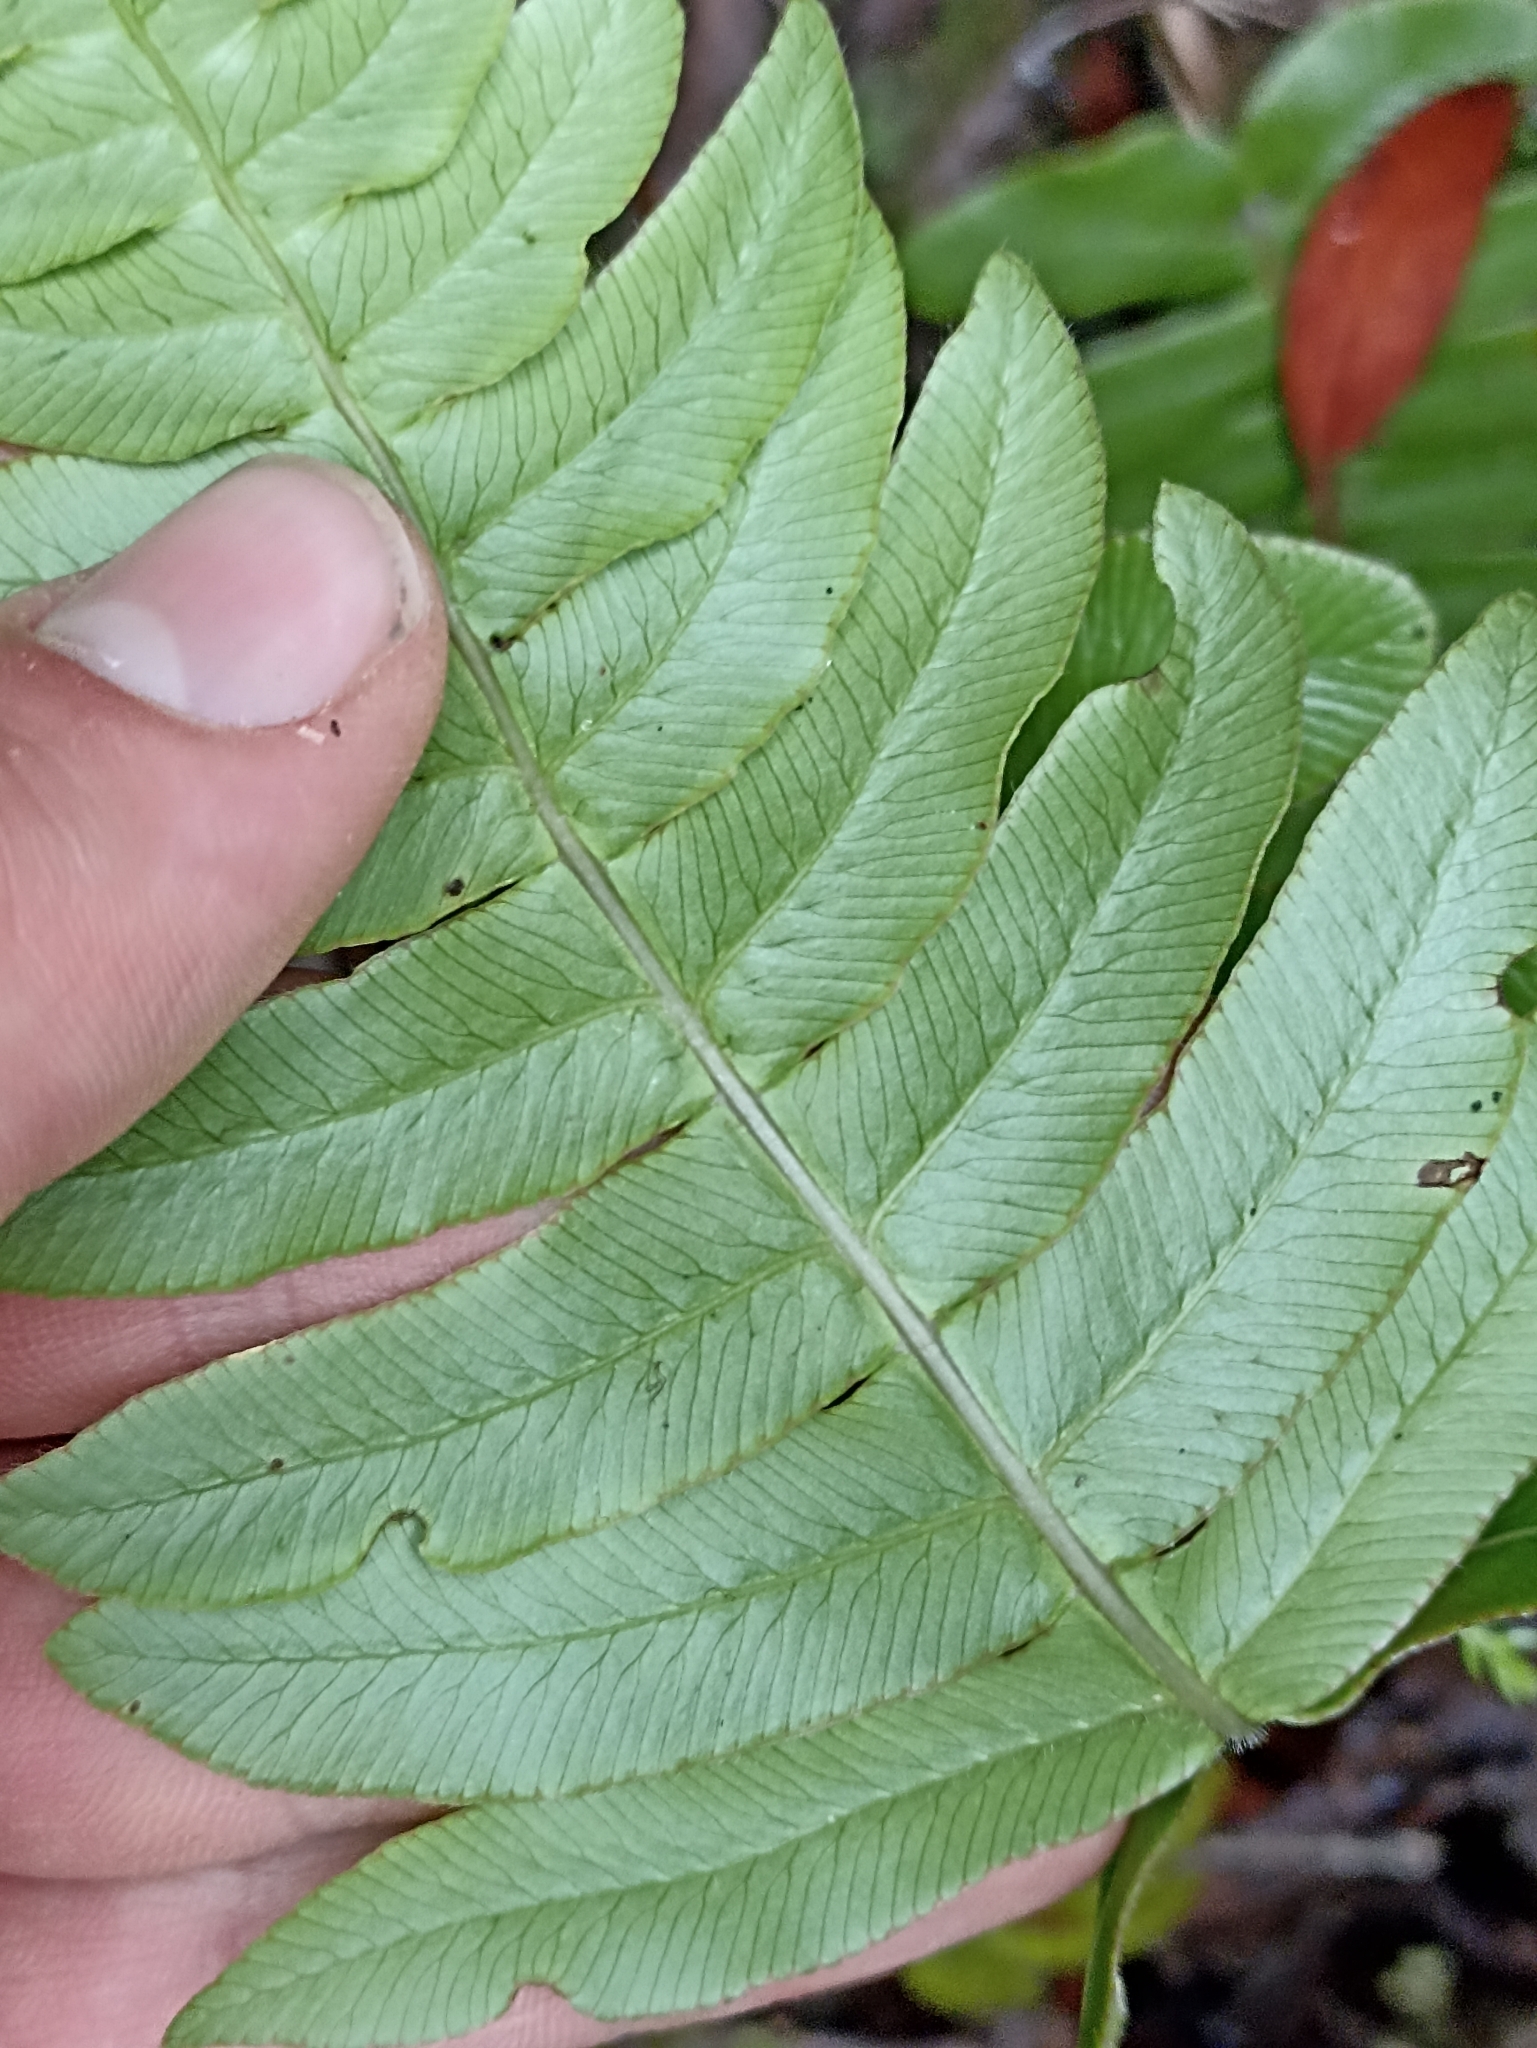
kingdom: Plantae
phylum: Tracheophyta
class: Polypodiopsida
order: Polypodiales
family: Blechnaceae
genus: Cranfillia
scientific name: Cranfillia deltoides
